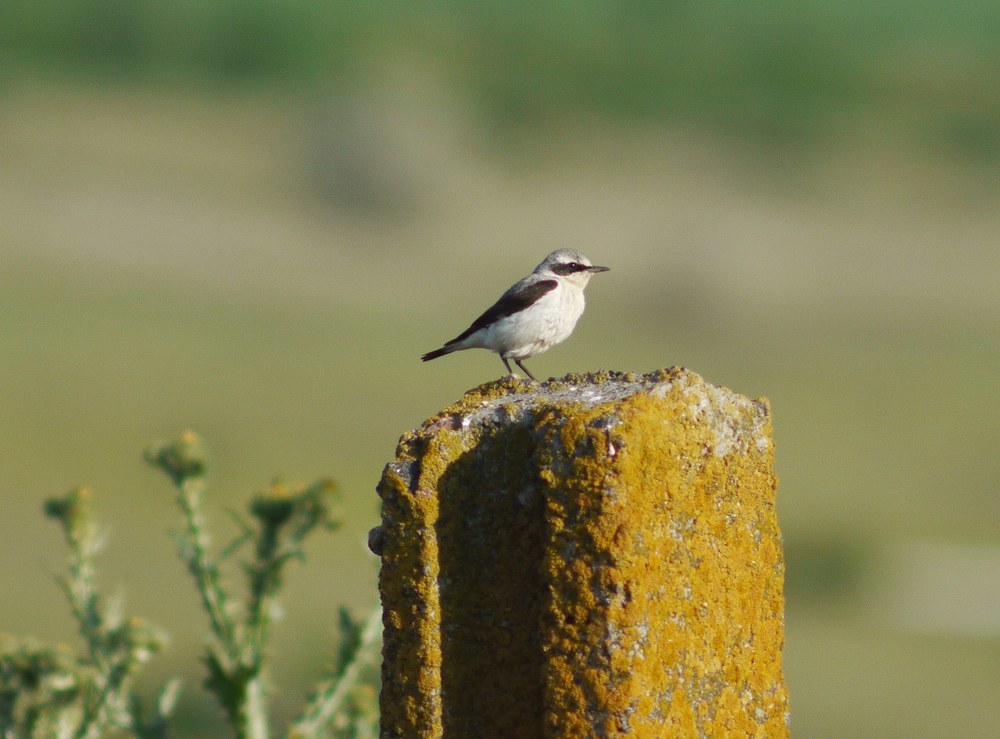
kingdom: Animalia
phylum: Chordata
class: Aves
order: Passeriformes
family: Muscicapidae
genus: Oenanthe
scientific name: Oenanthe oenanthe
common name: Northern wheatear
